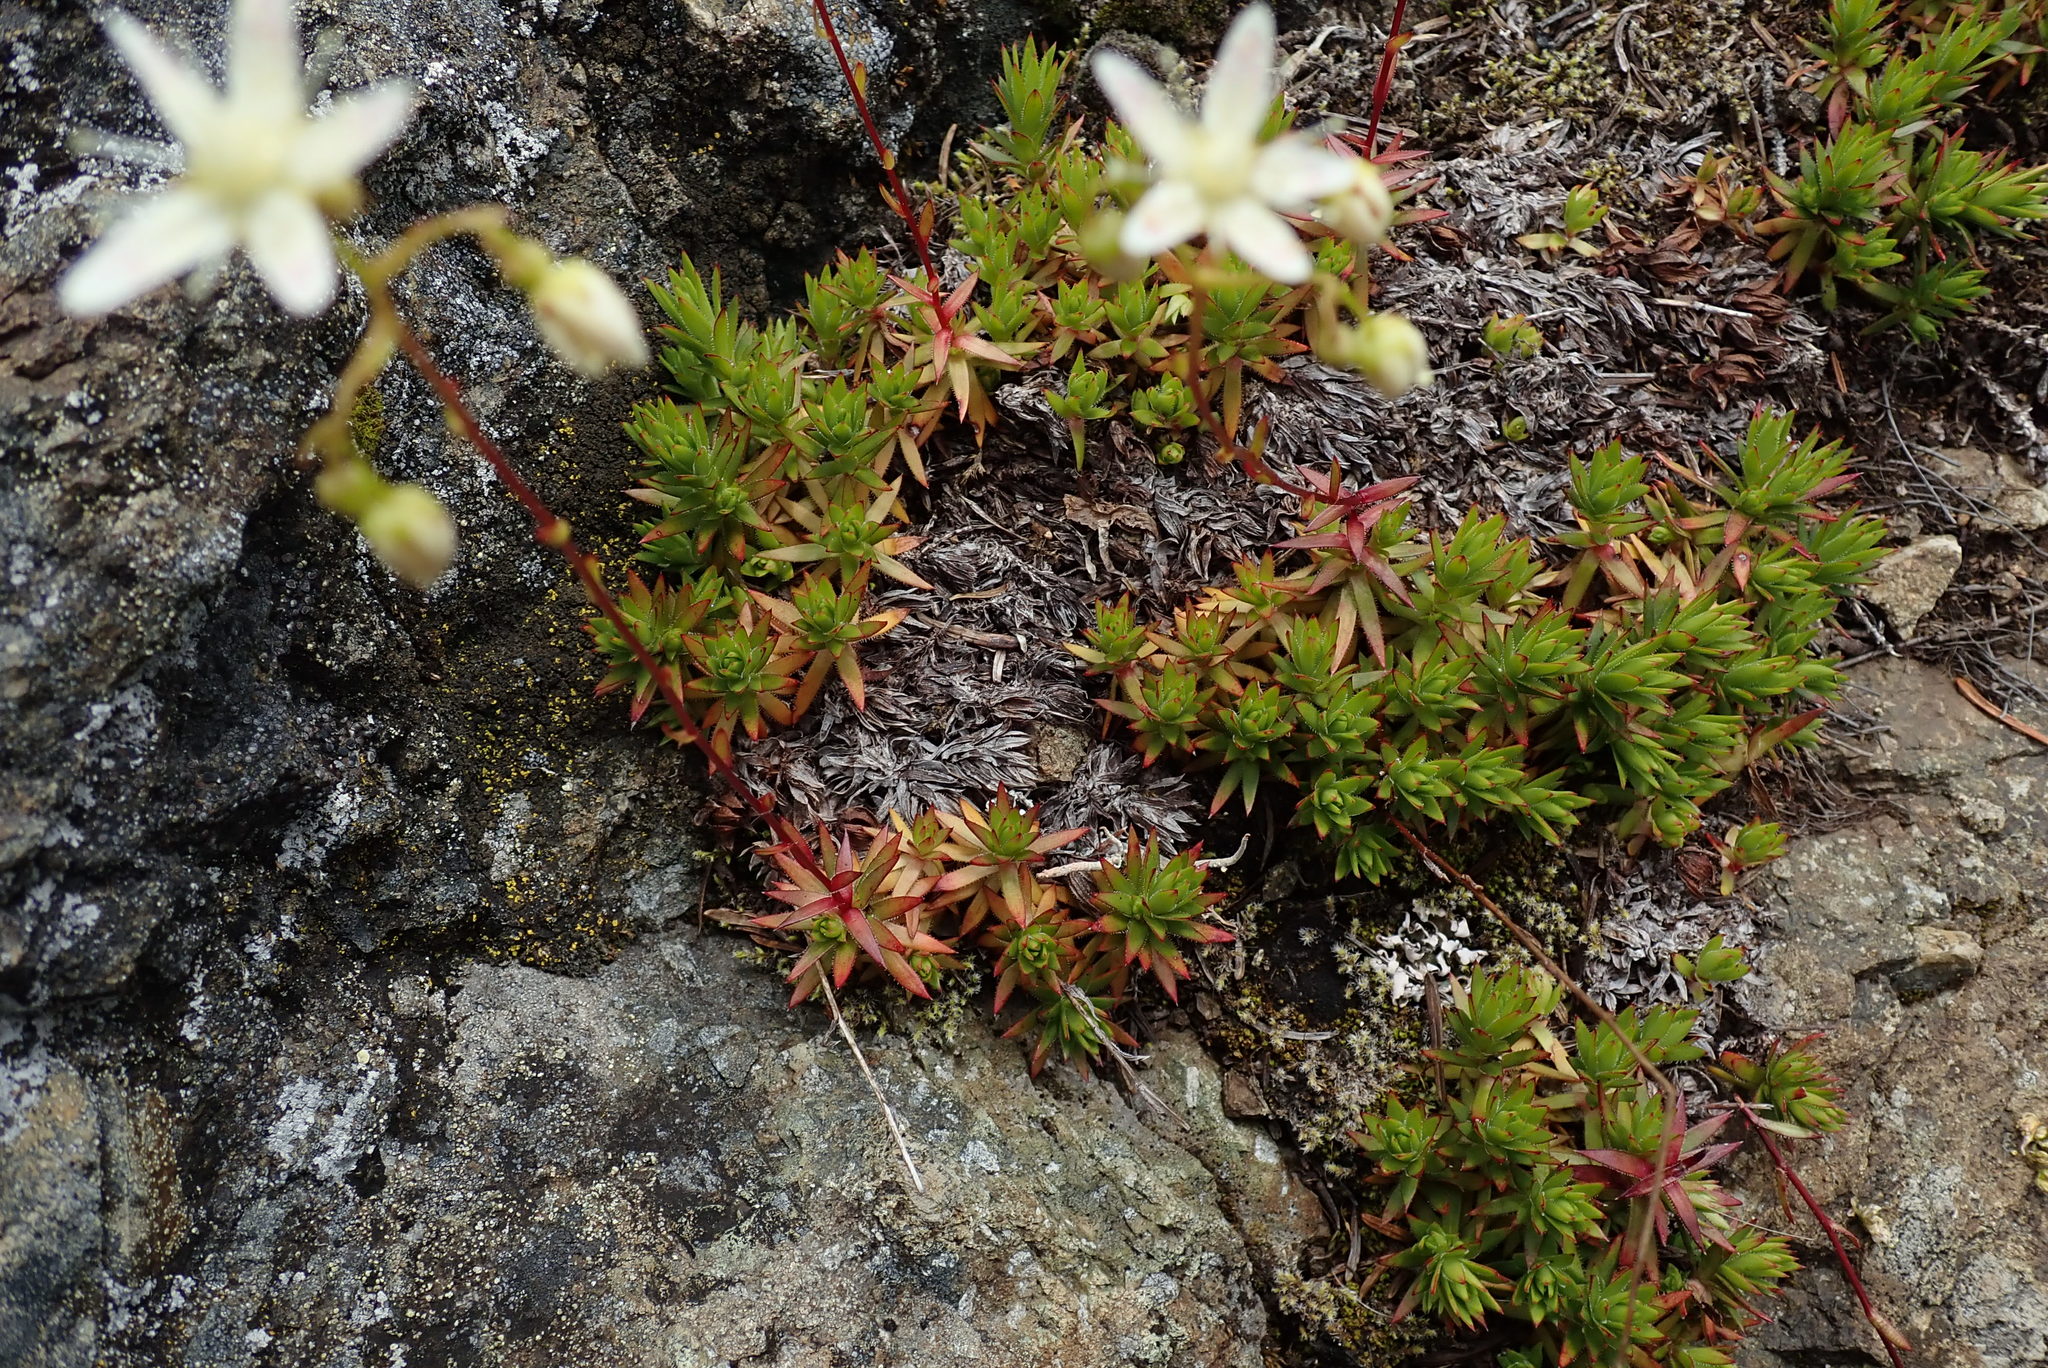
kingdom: Plantae
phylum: Tracheophyta
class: Magnoliopsida
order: Saxifragales
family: Saxifragaceae
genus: Saxifraga
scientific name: Saxifraga bronchialis
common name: Matted saxifrage
